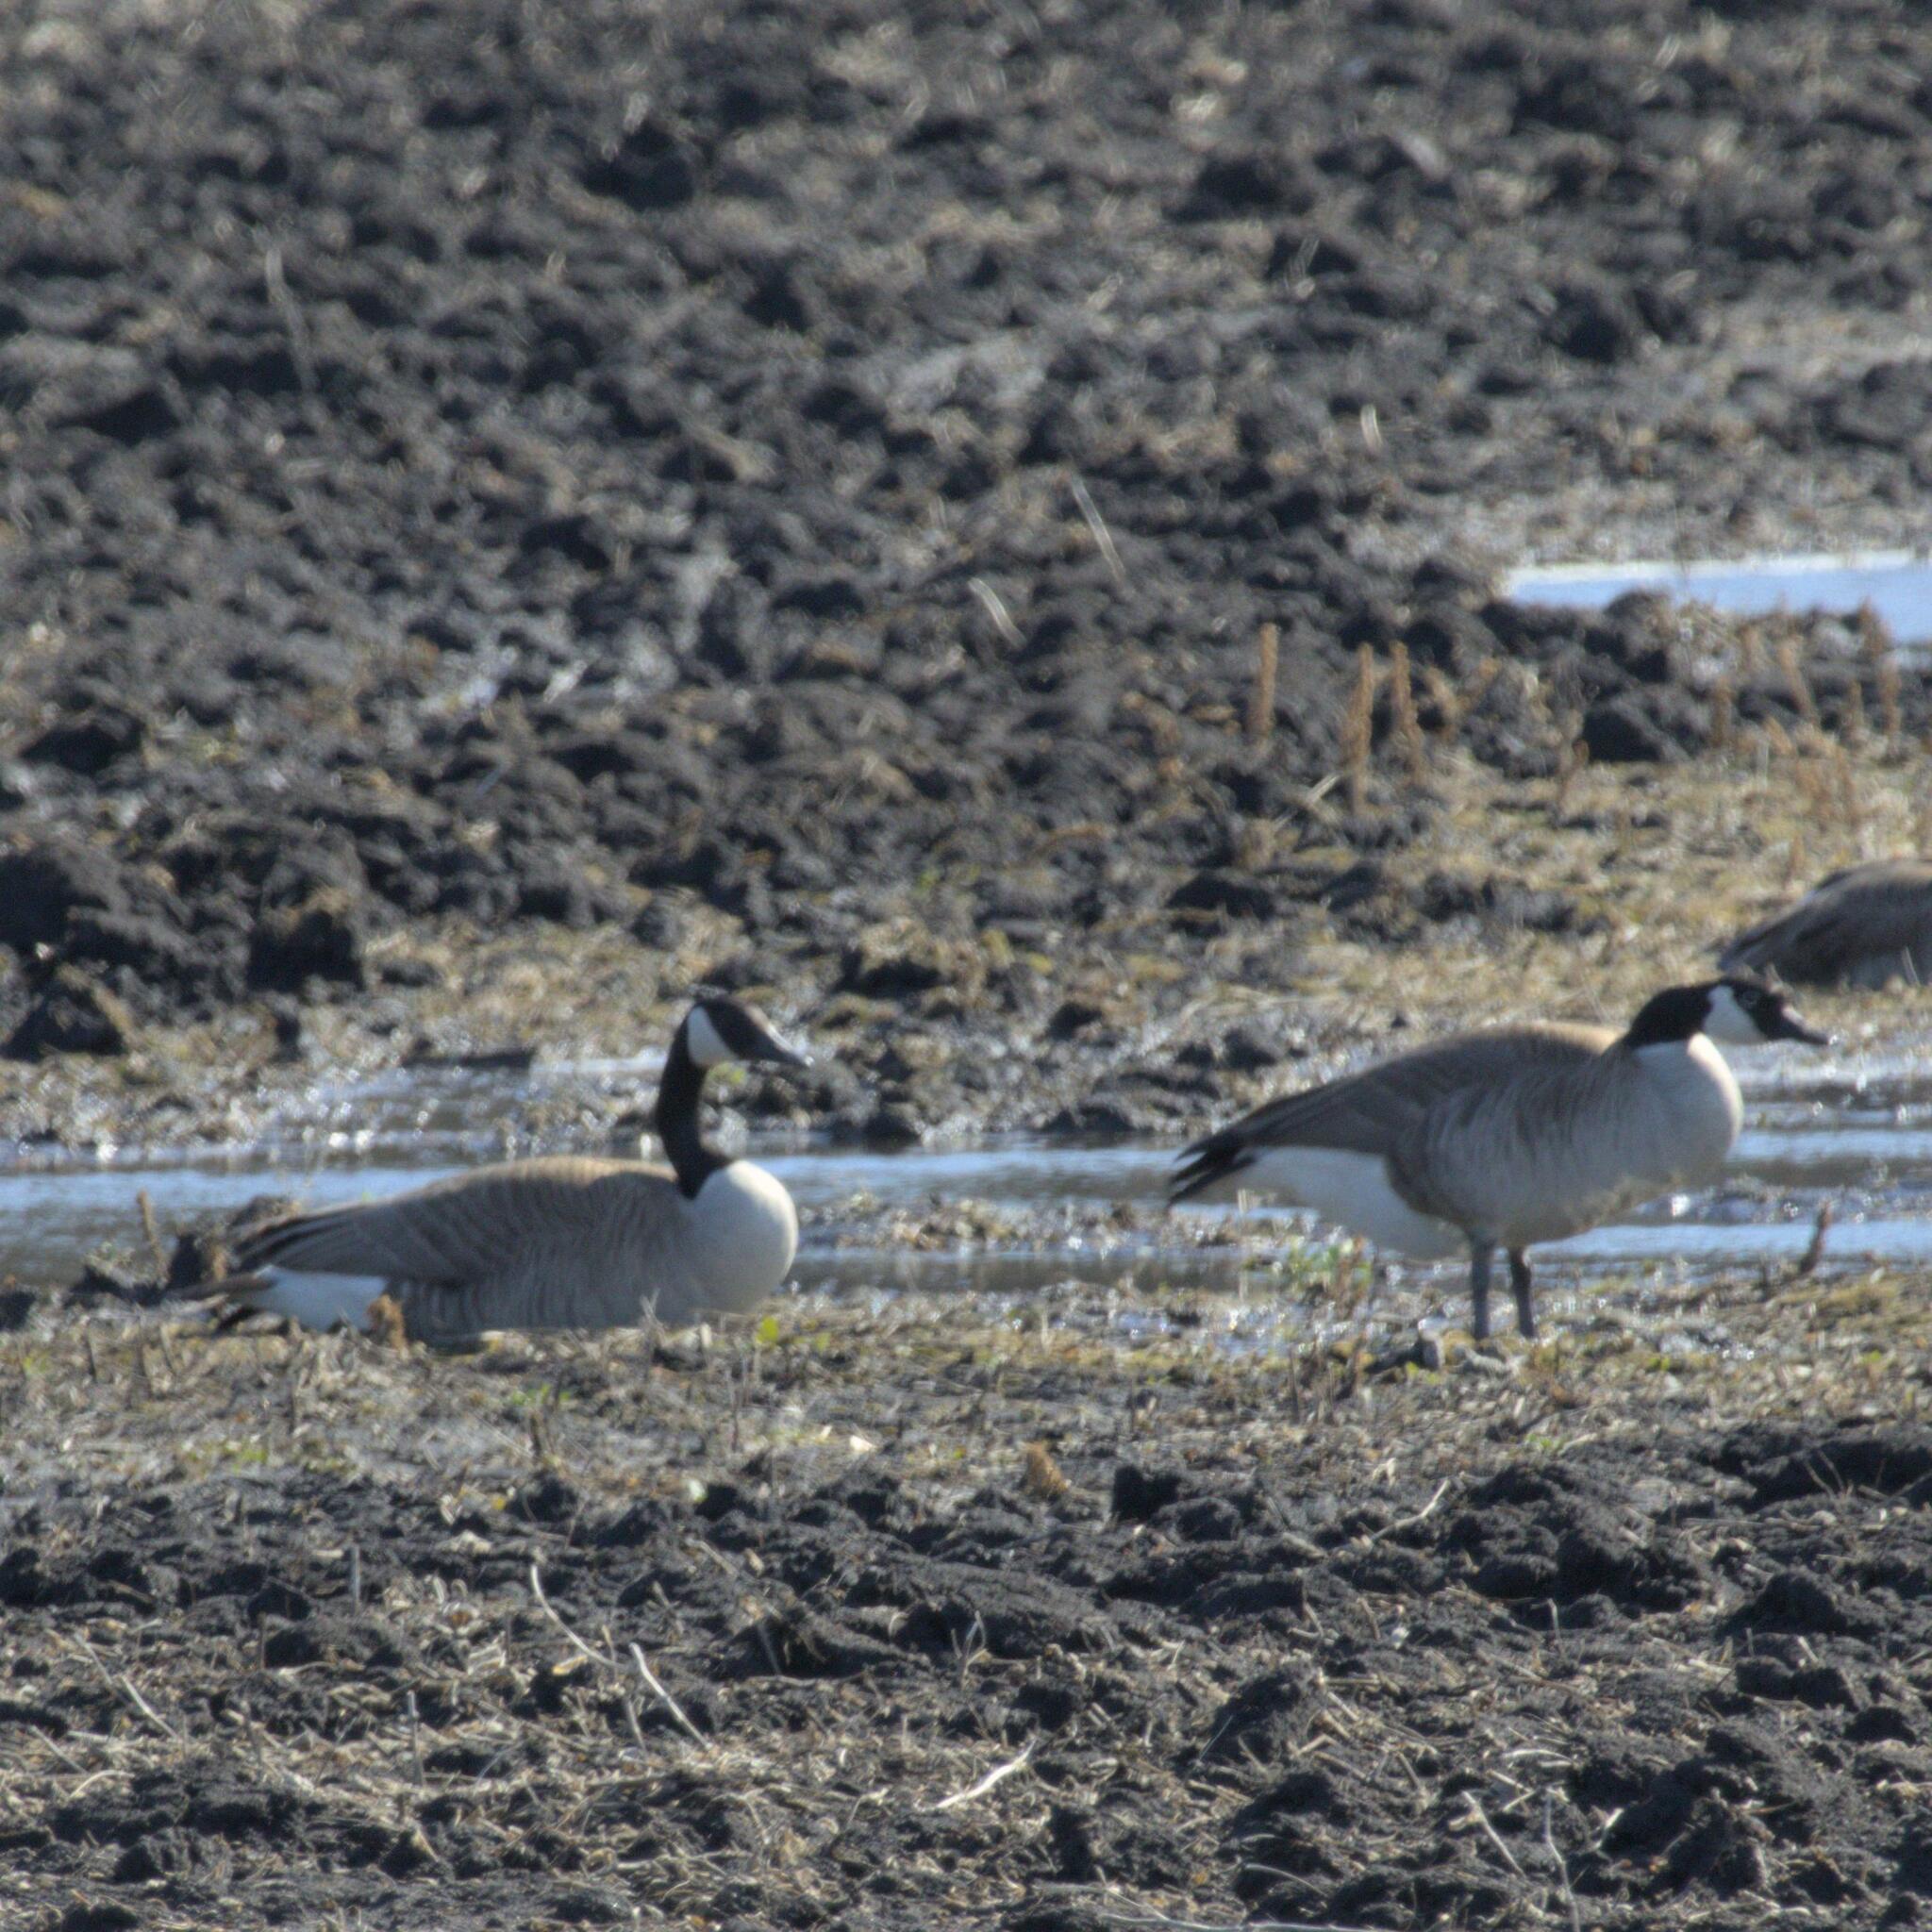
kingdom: Animalia
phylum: Chordata
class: Aves
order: Anseriformes
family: Anatidae
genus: Branta
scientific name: Branta canadensis
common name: Canada goose
